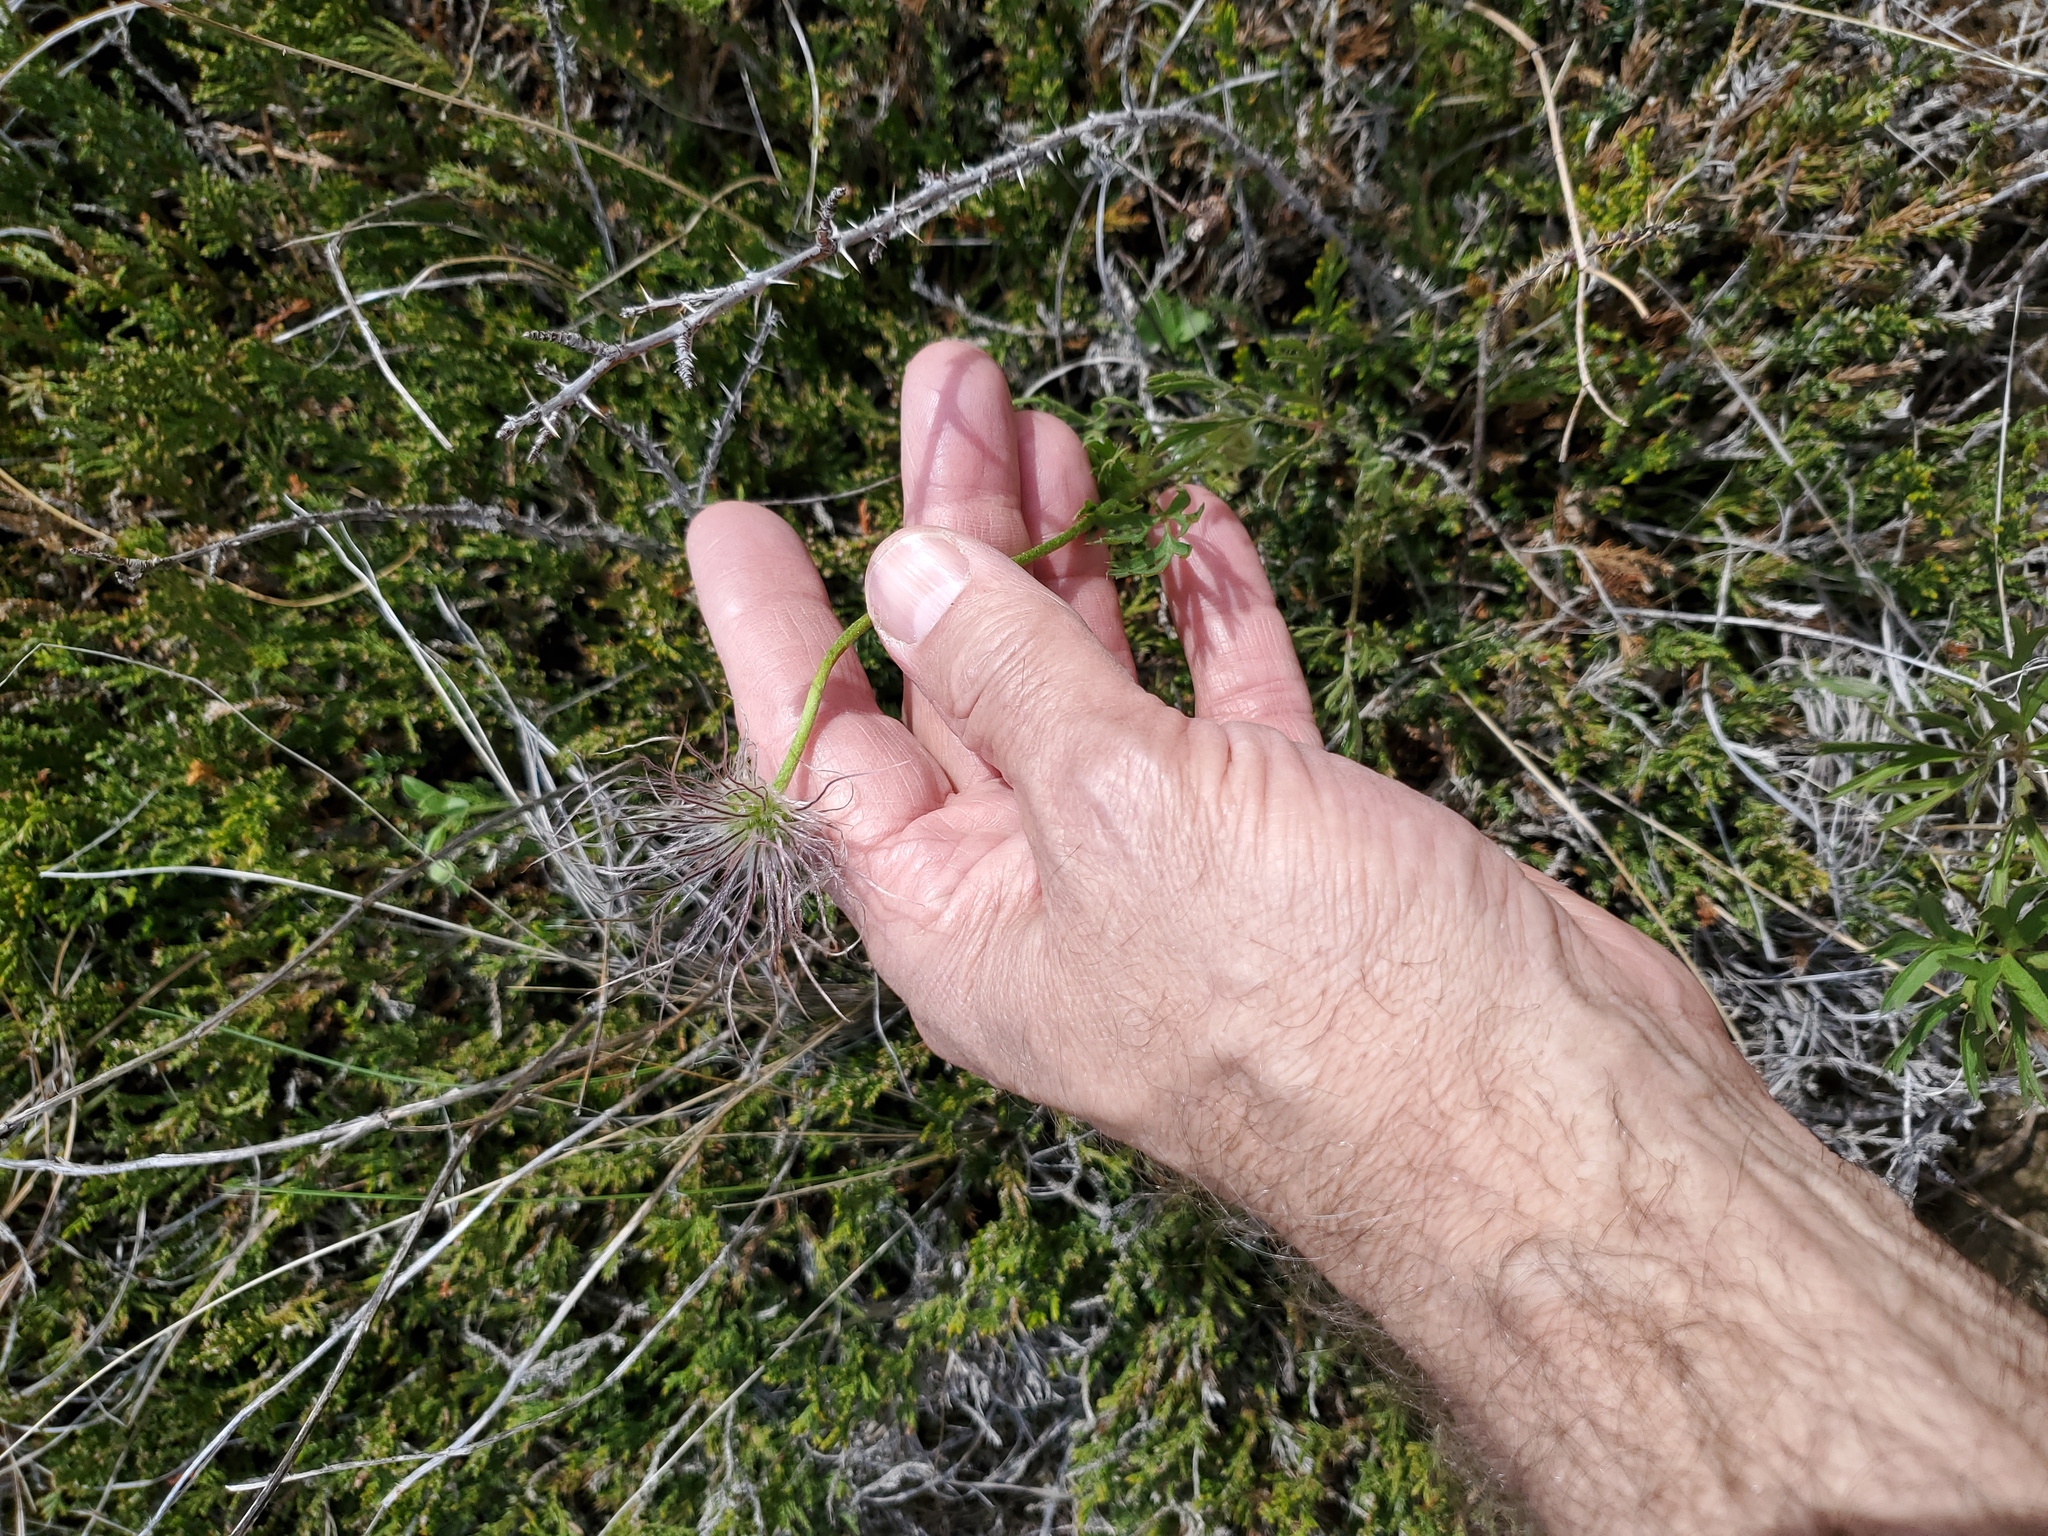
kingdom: Plantae
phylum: Tracheophyta
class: Magnoliopsida
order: Ranunculales
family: Ranunculaceae
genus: Pulsatilla
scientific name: Pulsatilla nuttalliana
